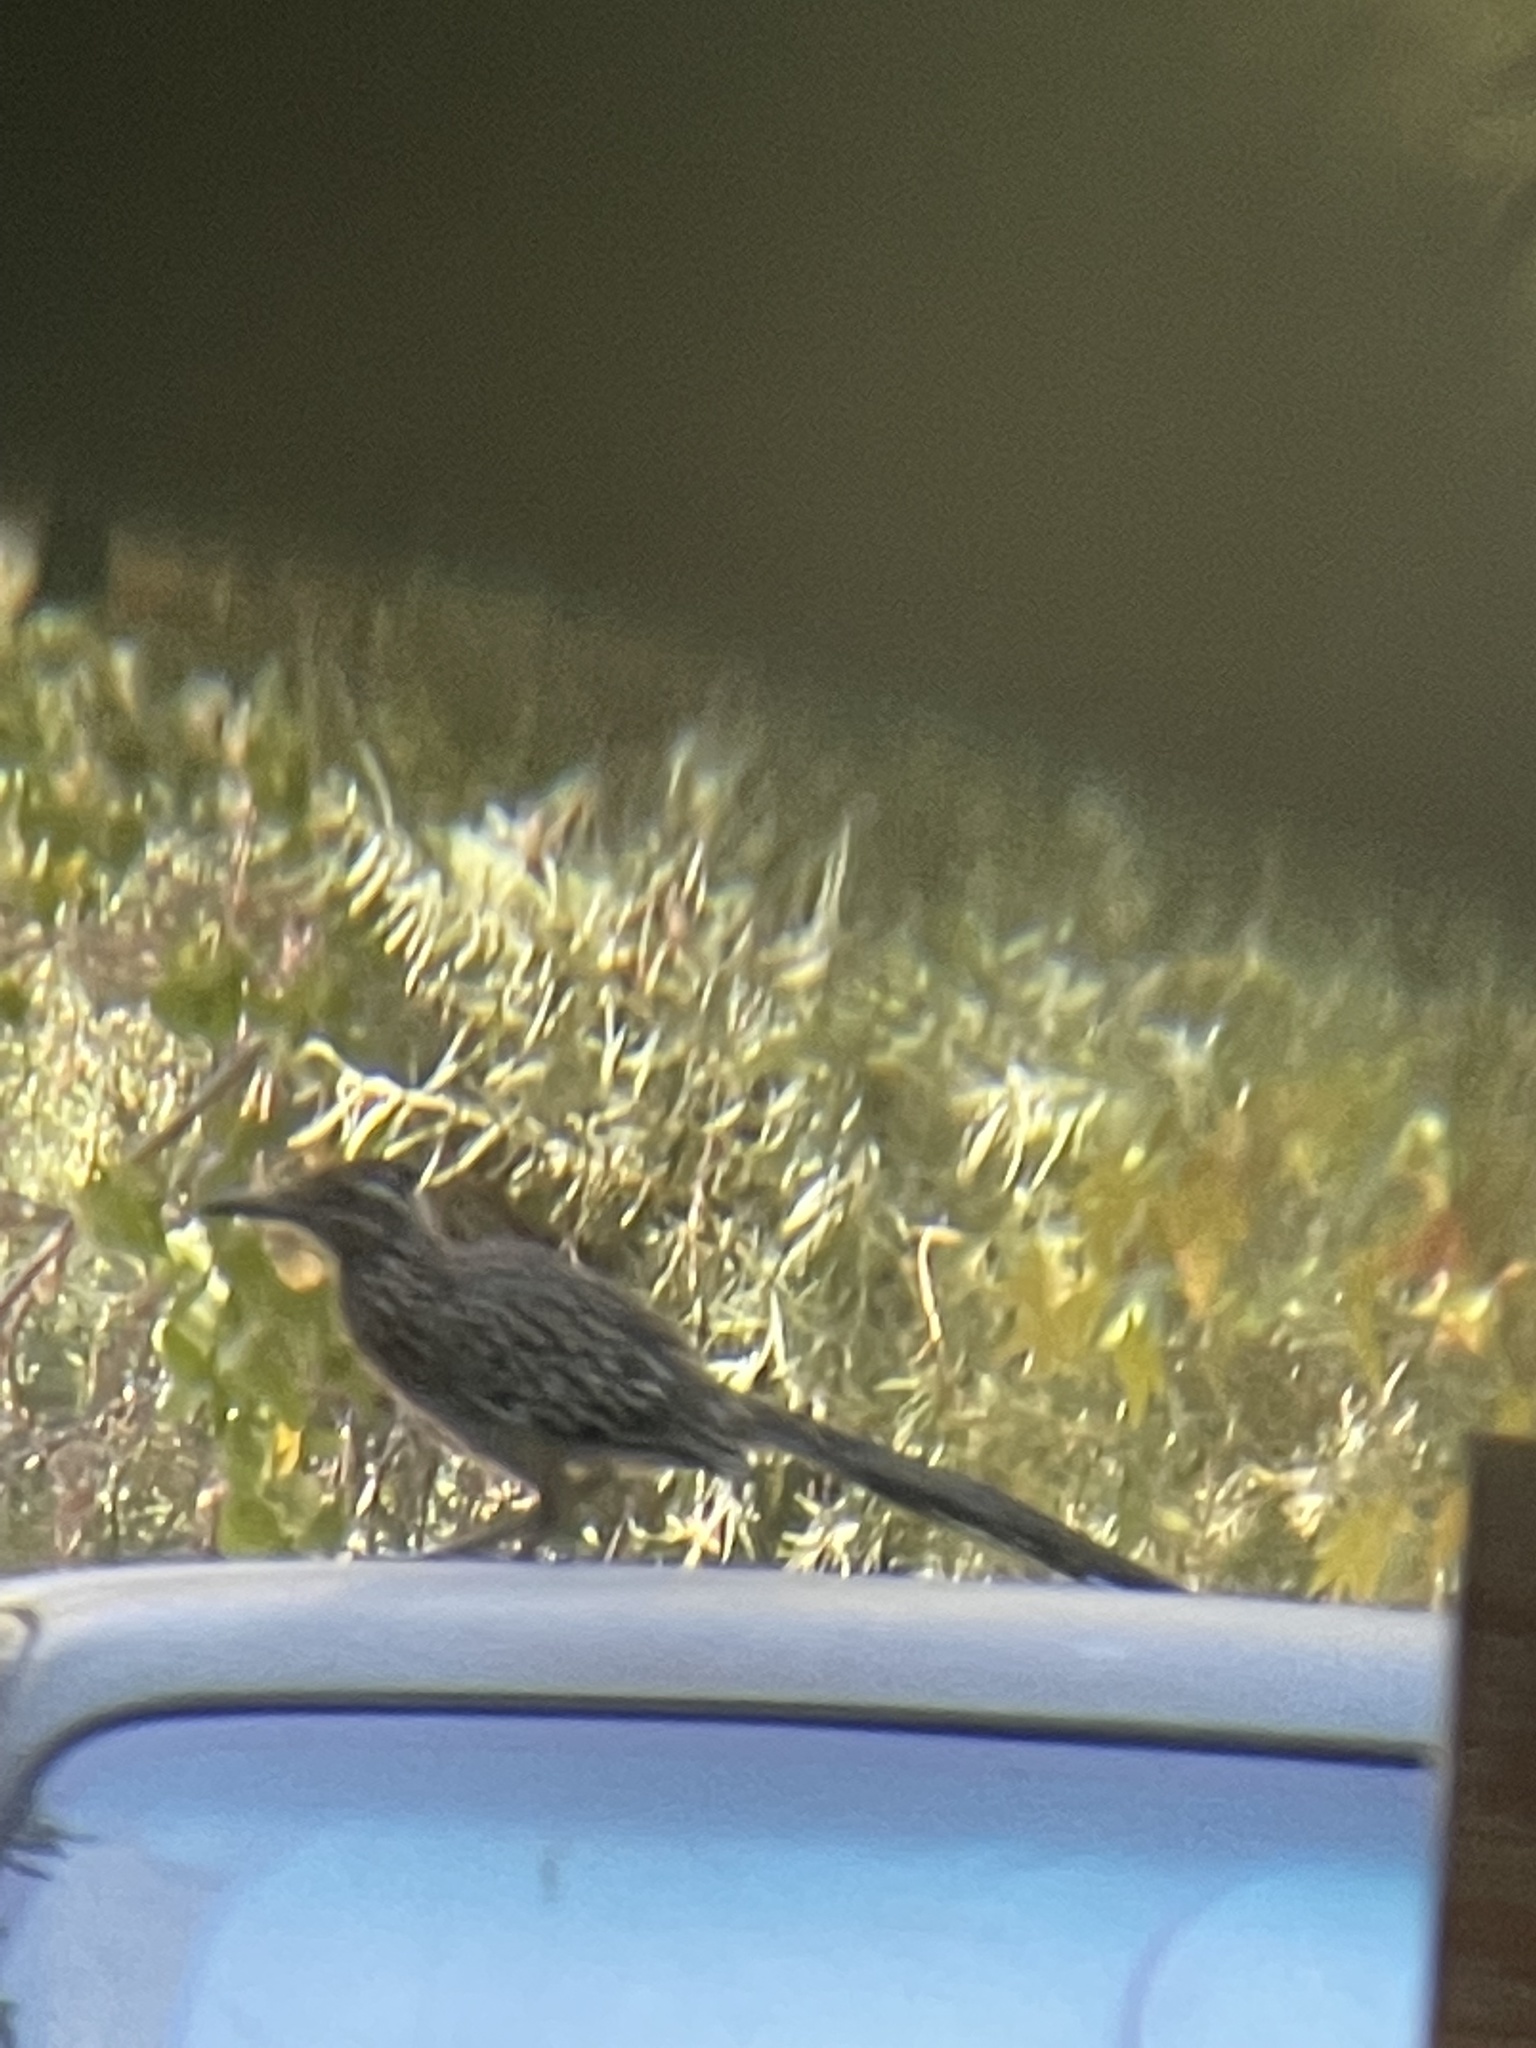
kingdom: Animalia
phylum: Chordata
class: Aves
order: Cuculiformes
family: Cuculidae
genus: Geococcyx
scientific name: Geococcyx californianus
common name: Greater roadrunner
